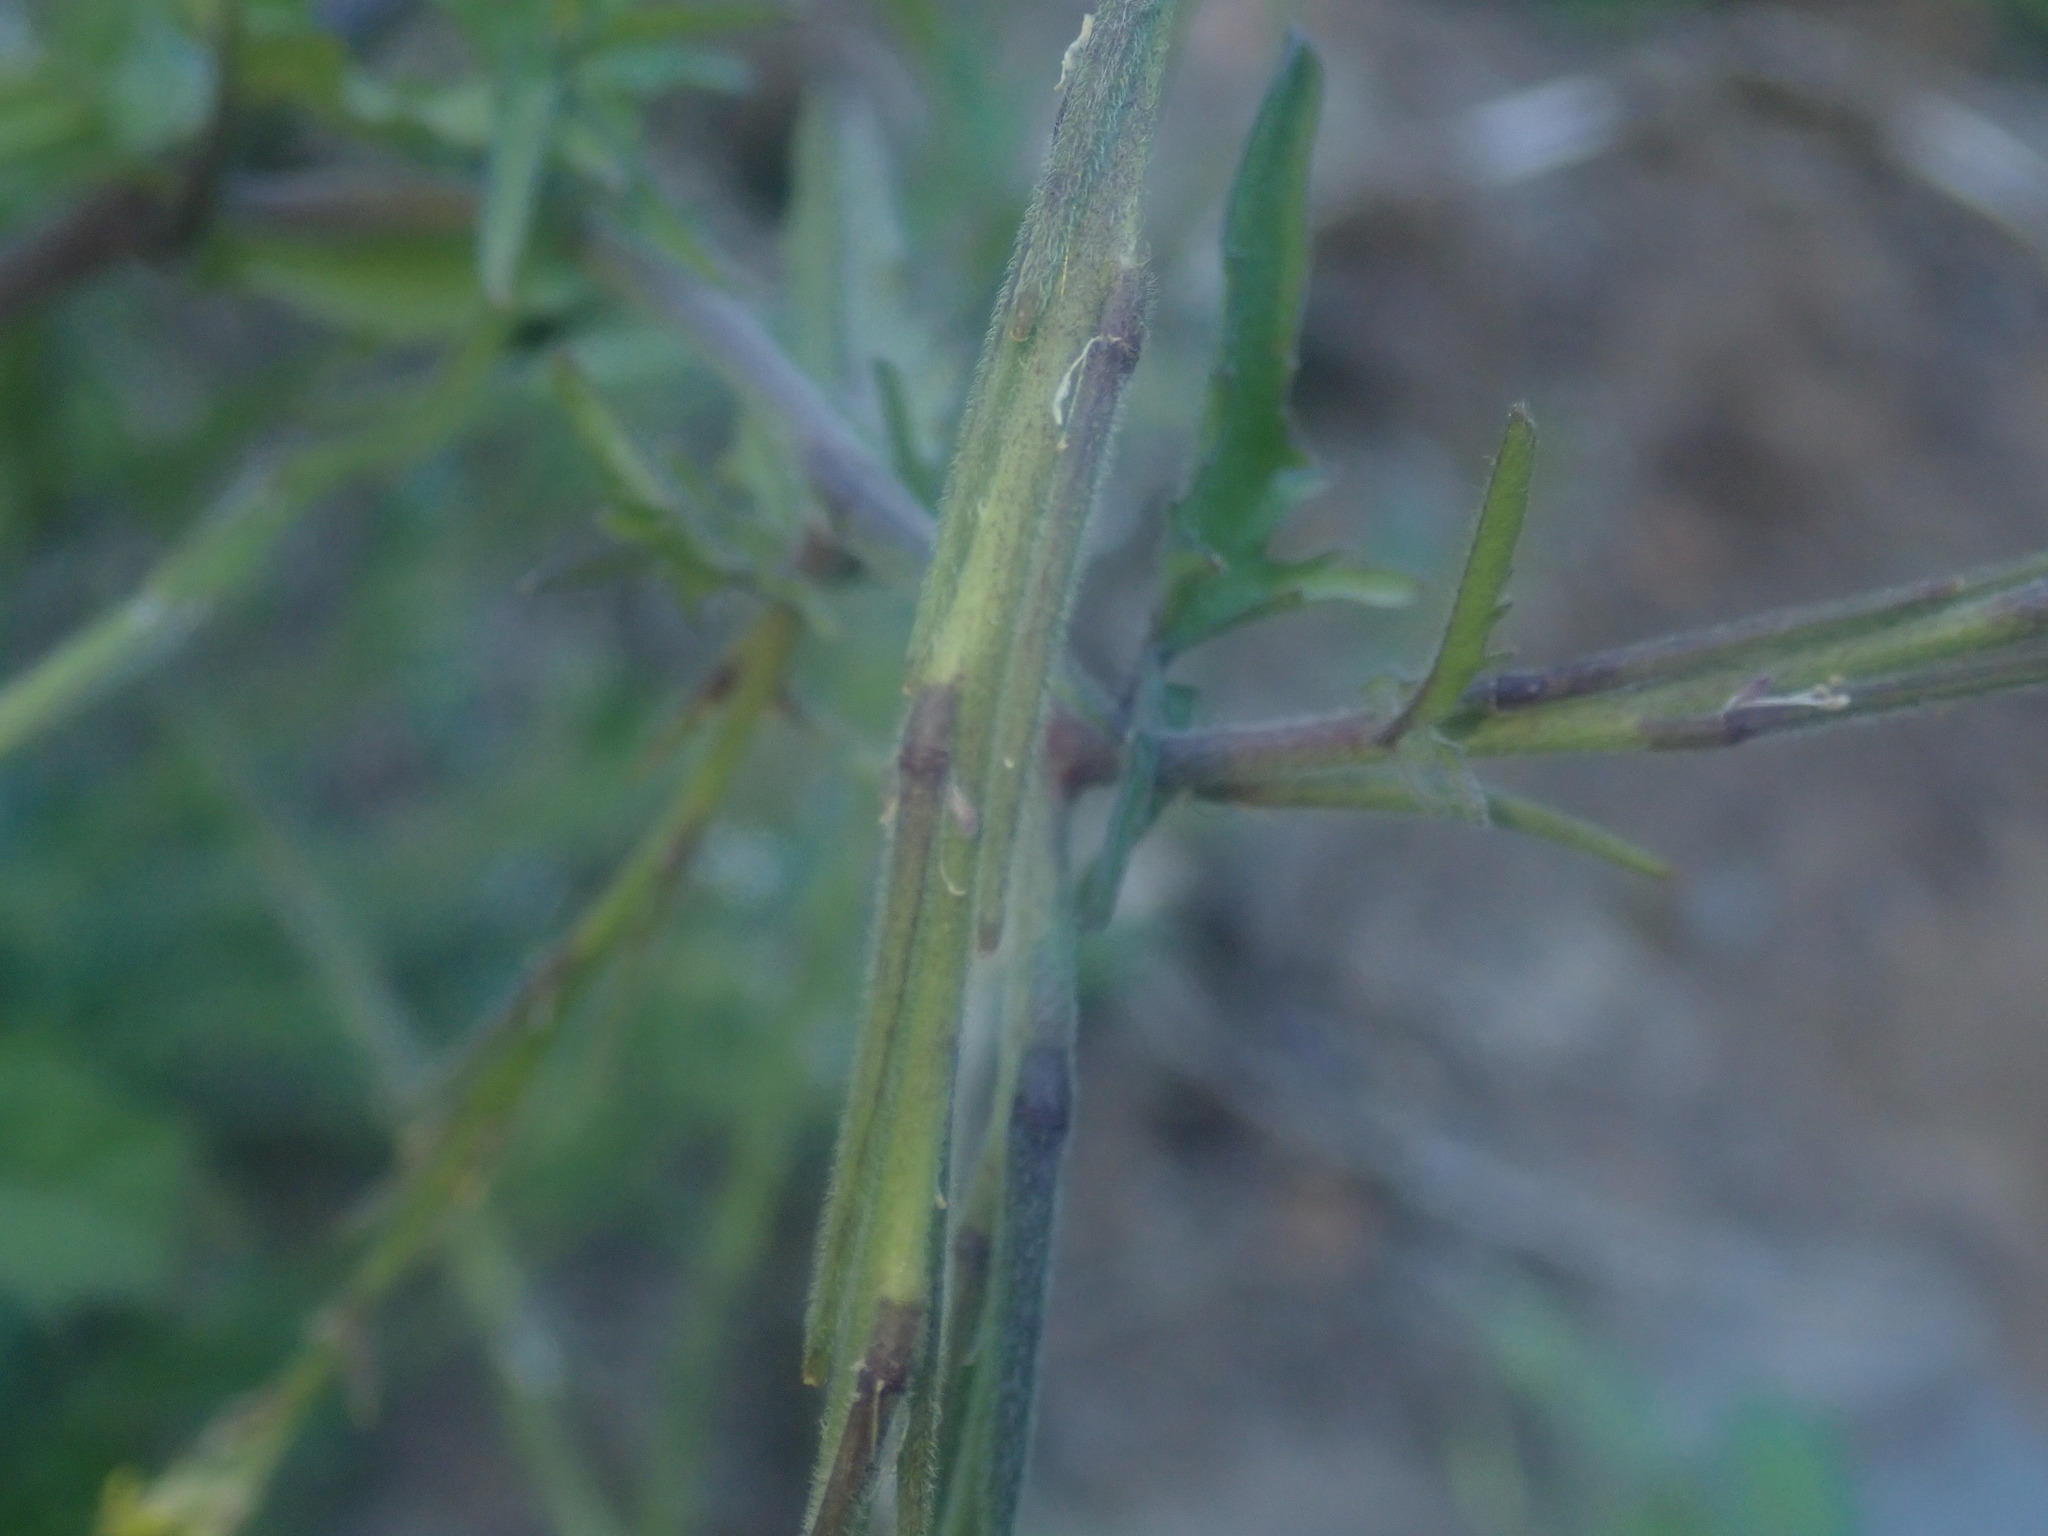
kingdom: Plantae
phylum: Tracheophyta
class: Magnoliopsida
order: Brassicales
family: Brassicaceae
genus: Sisymbrium
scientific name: Sisymbrium officinale
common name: Hedge mustard
